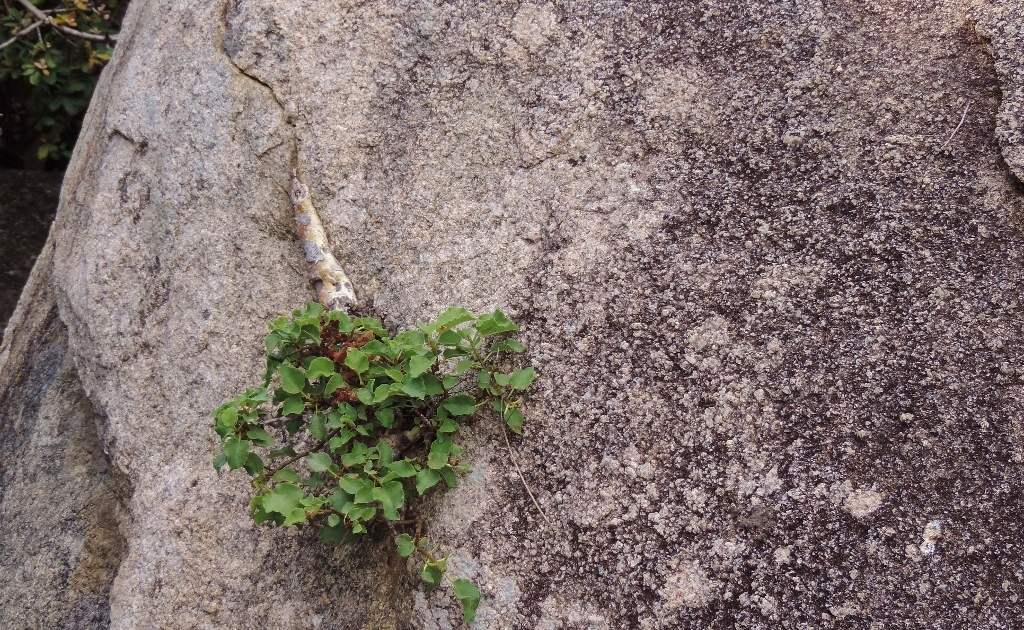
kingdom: Plantae
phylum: Tracheophyta
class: Magnoliopsida
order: Rosales
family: Moraceae
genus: Ficus
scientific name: Ficus tettensis
